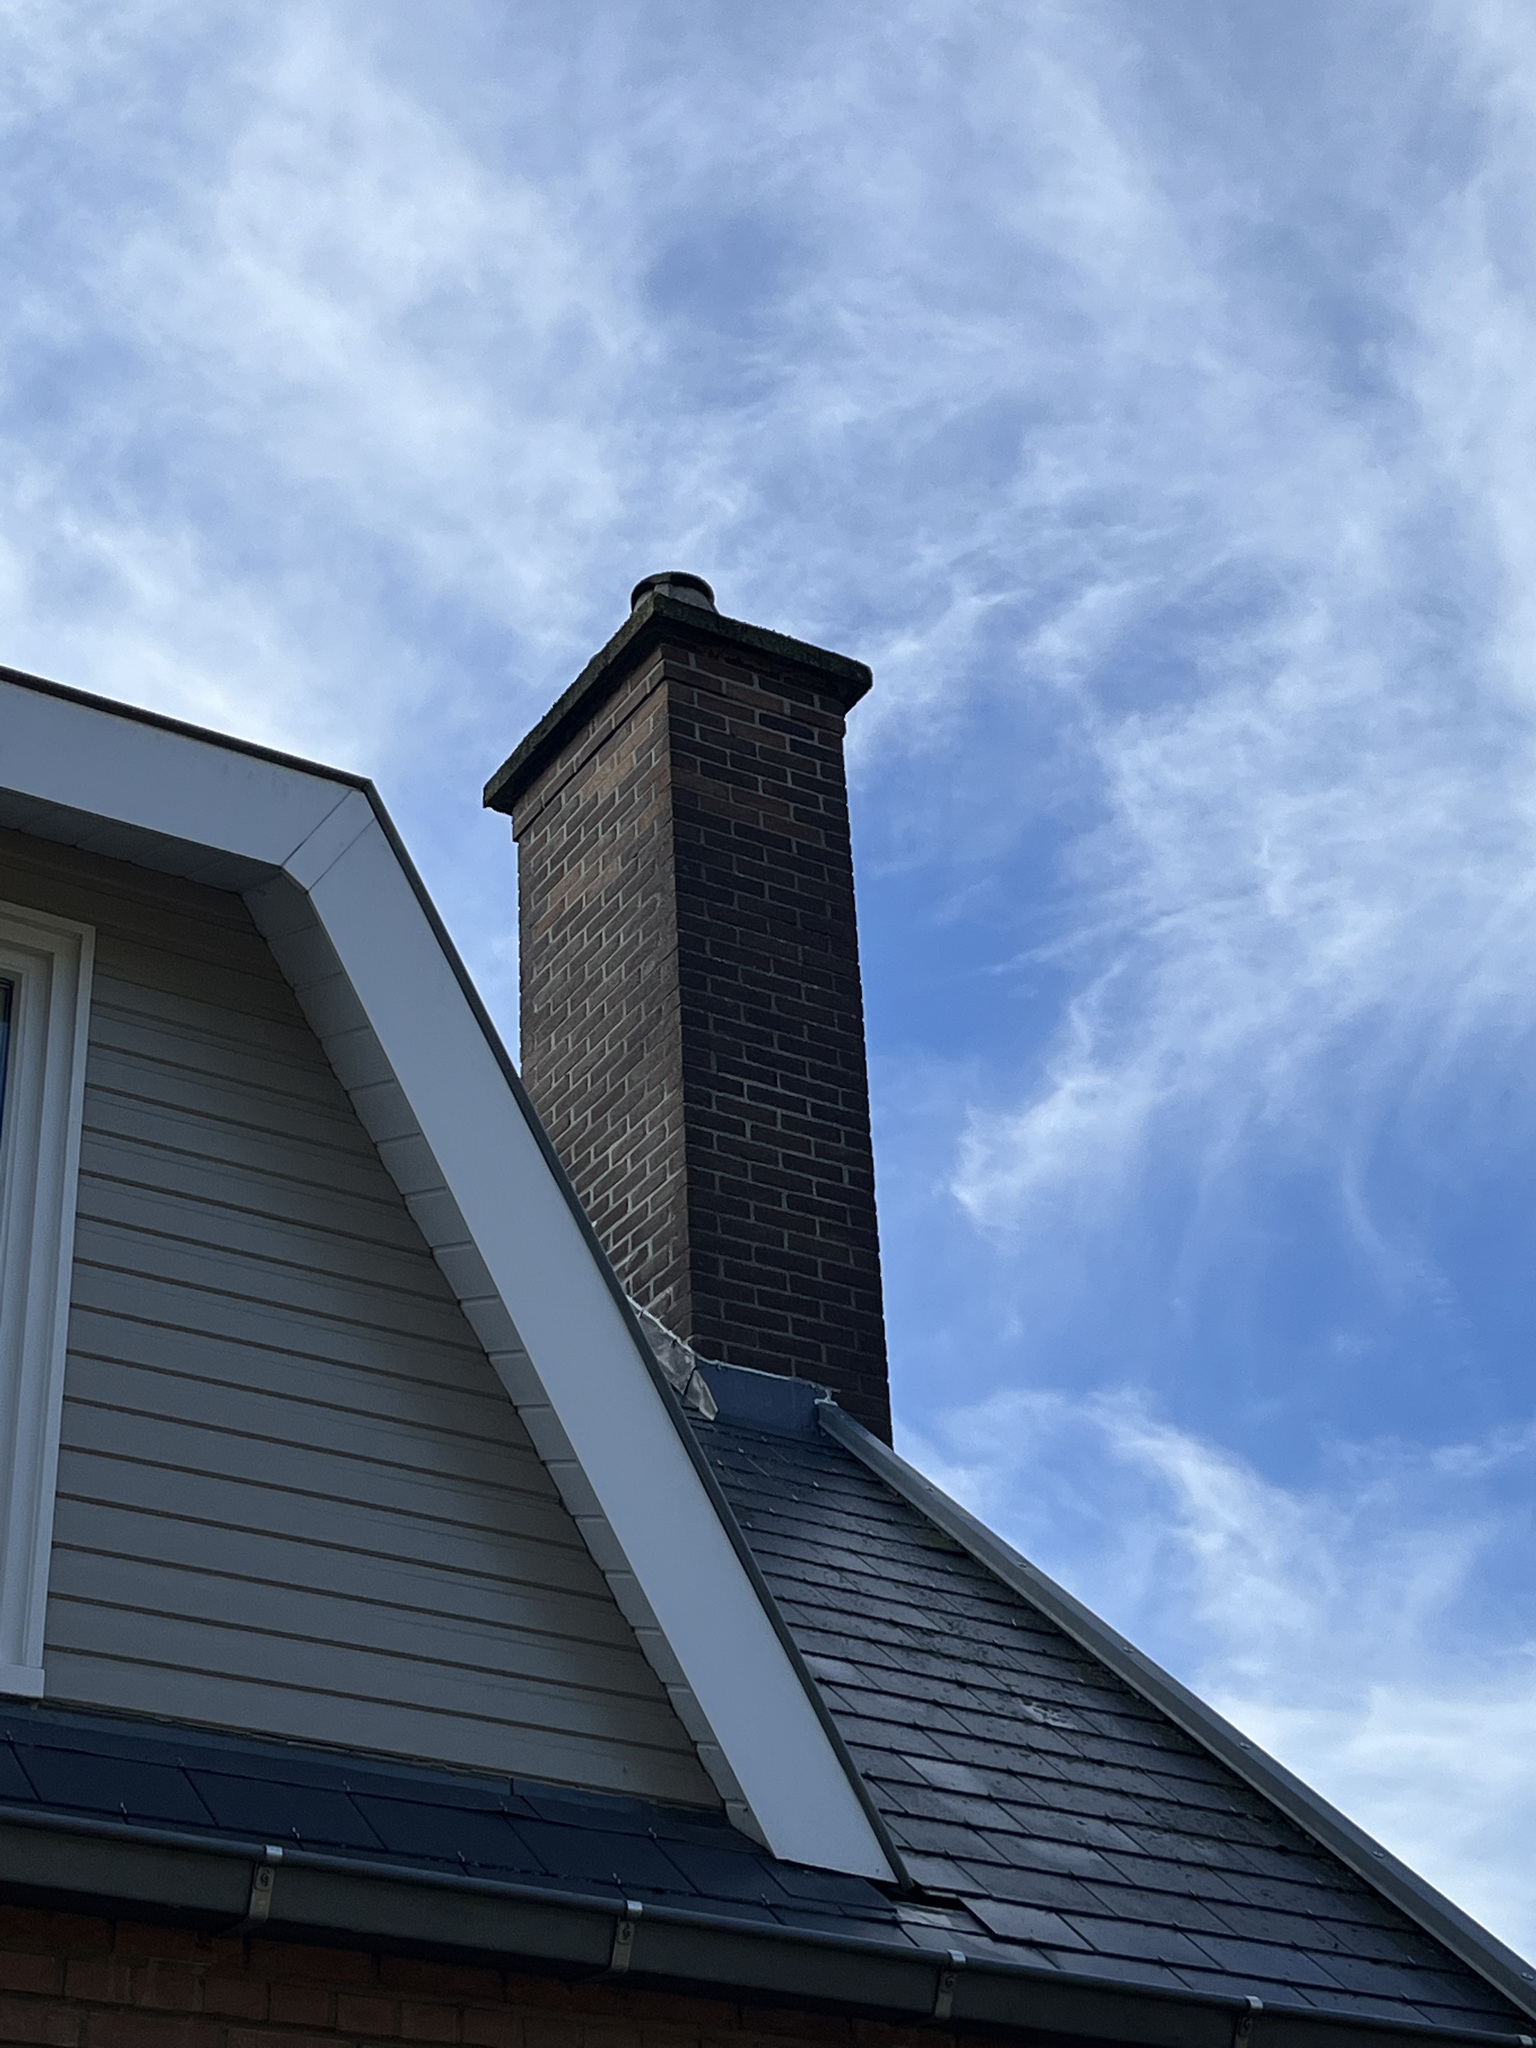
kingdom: Animalia
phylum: Arthropoda
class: Insecta
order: Hymenoptera
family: Vespidae
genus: Vespa
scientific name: Vespa crabro
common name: Hornet
